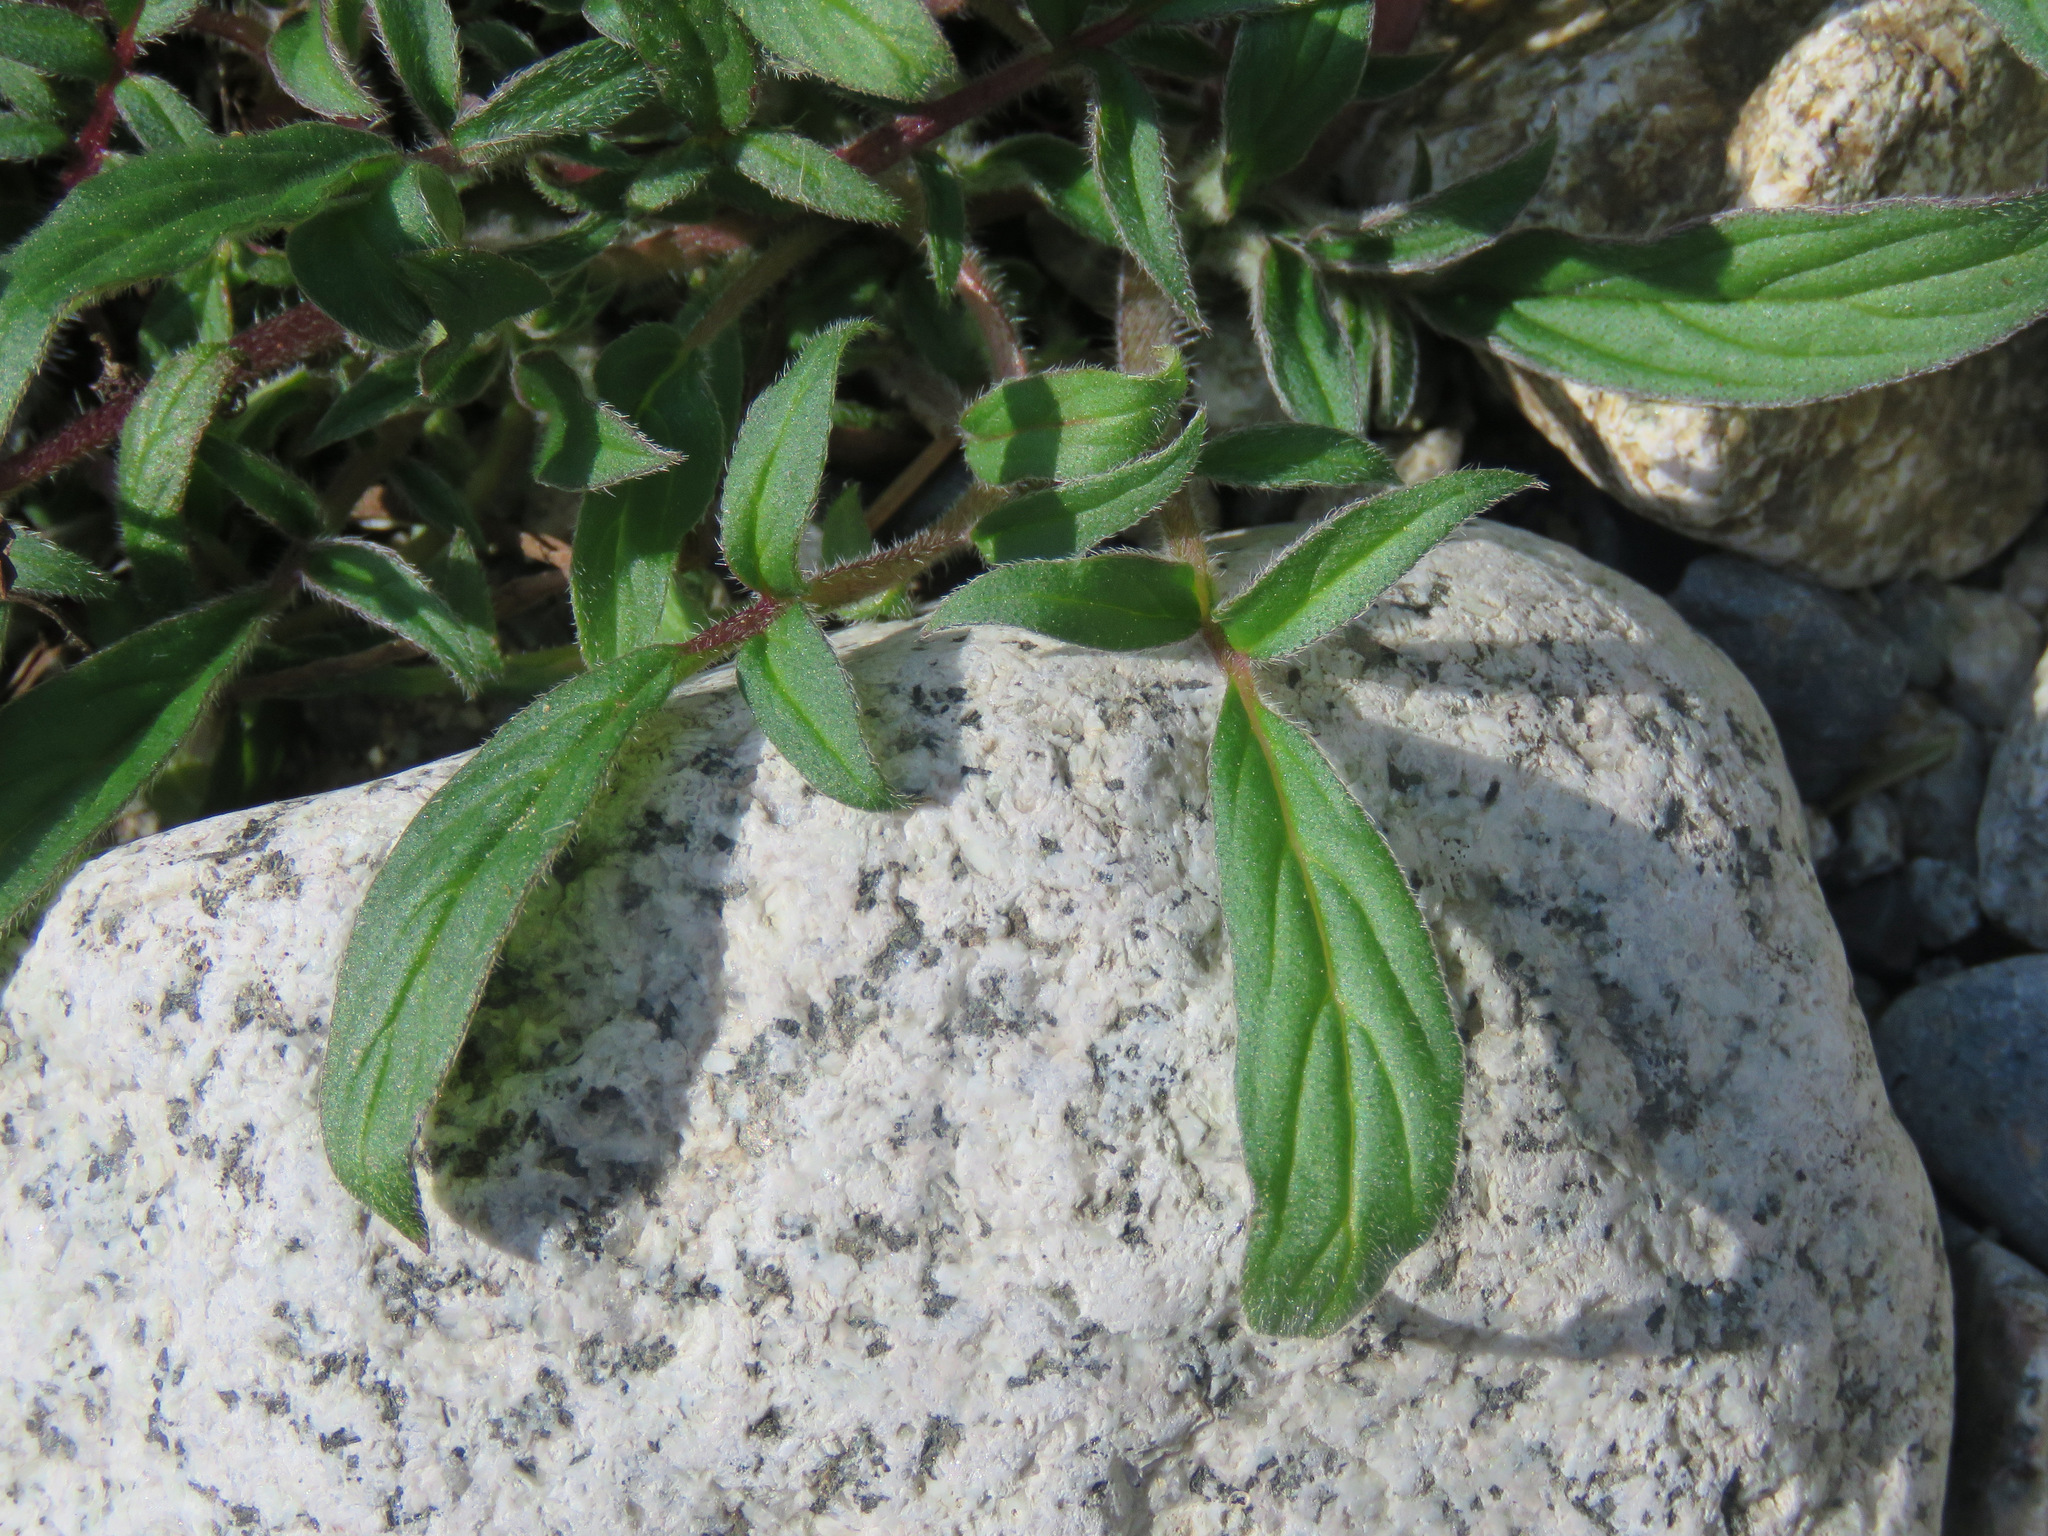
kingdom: Plantae
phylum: Tracheophyta
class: Magnoliopsida
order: Boraginales
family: Hydrophyllaceae
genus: Phacelia
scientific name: Phacelia leptosepala
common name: Narrow-sepaled phacelia
